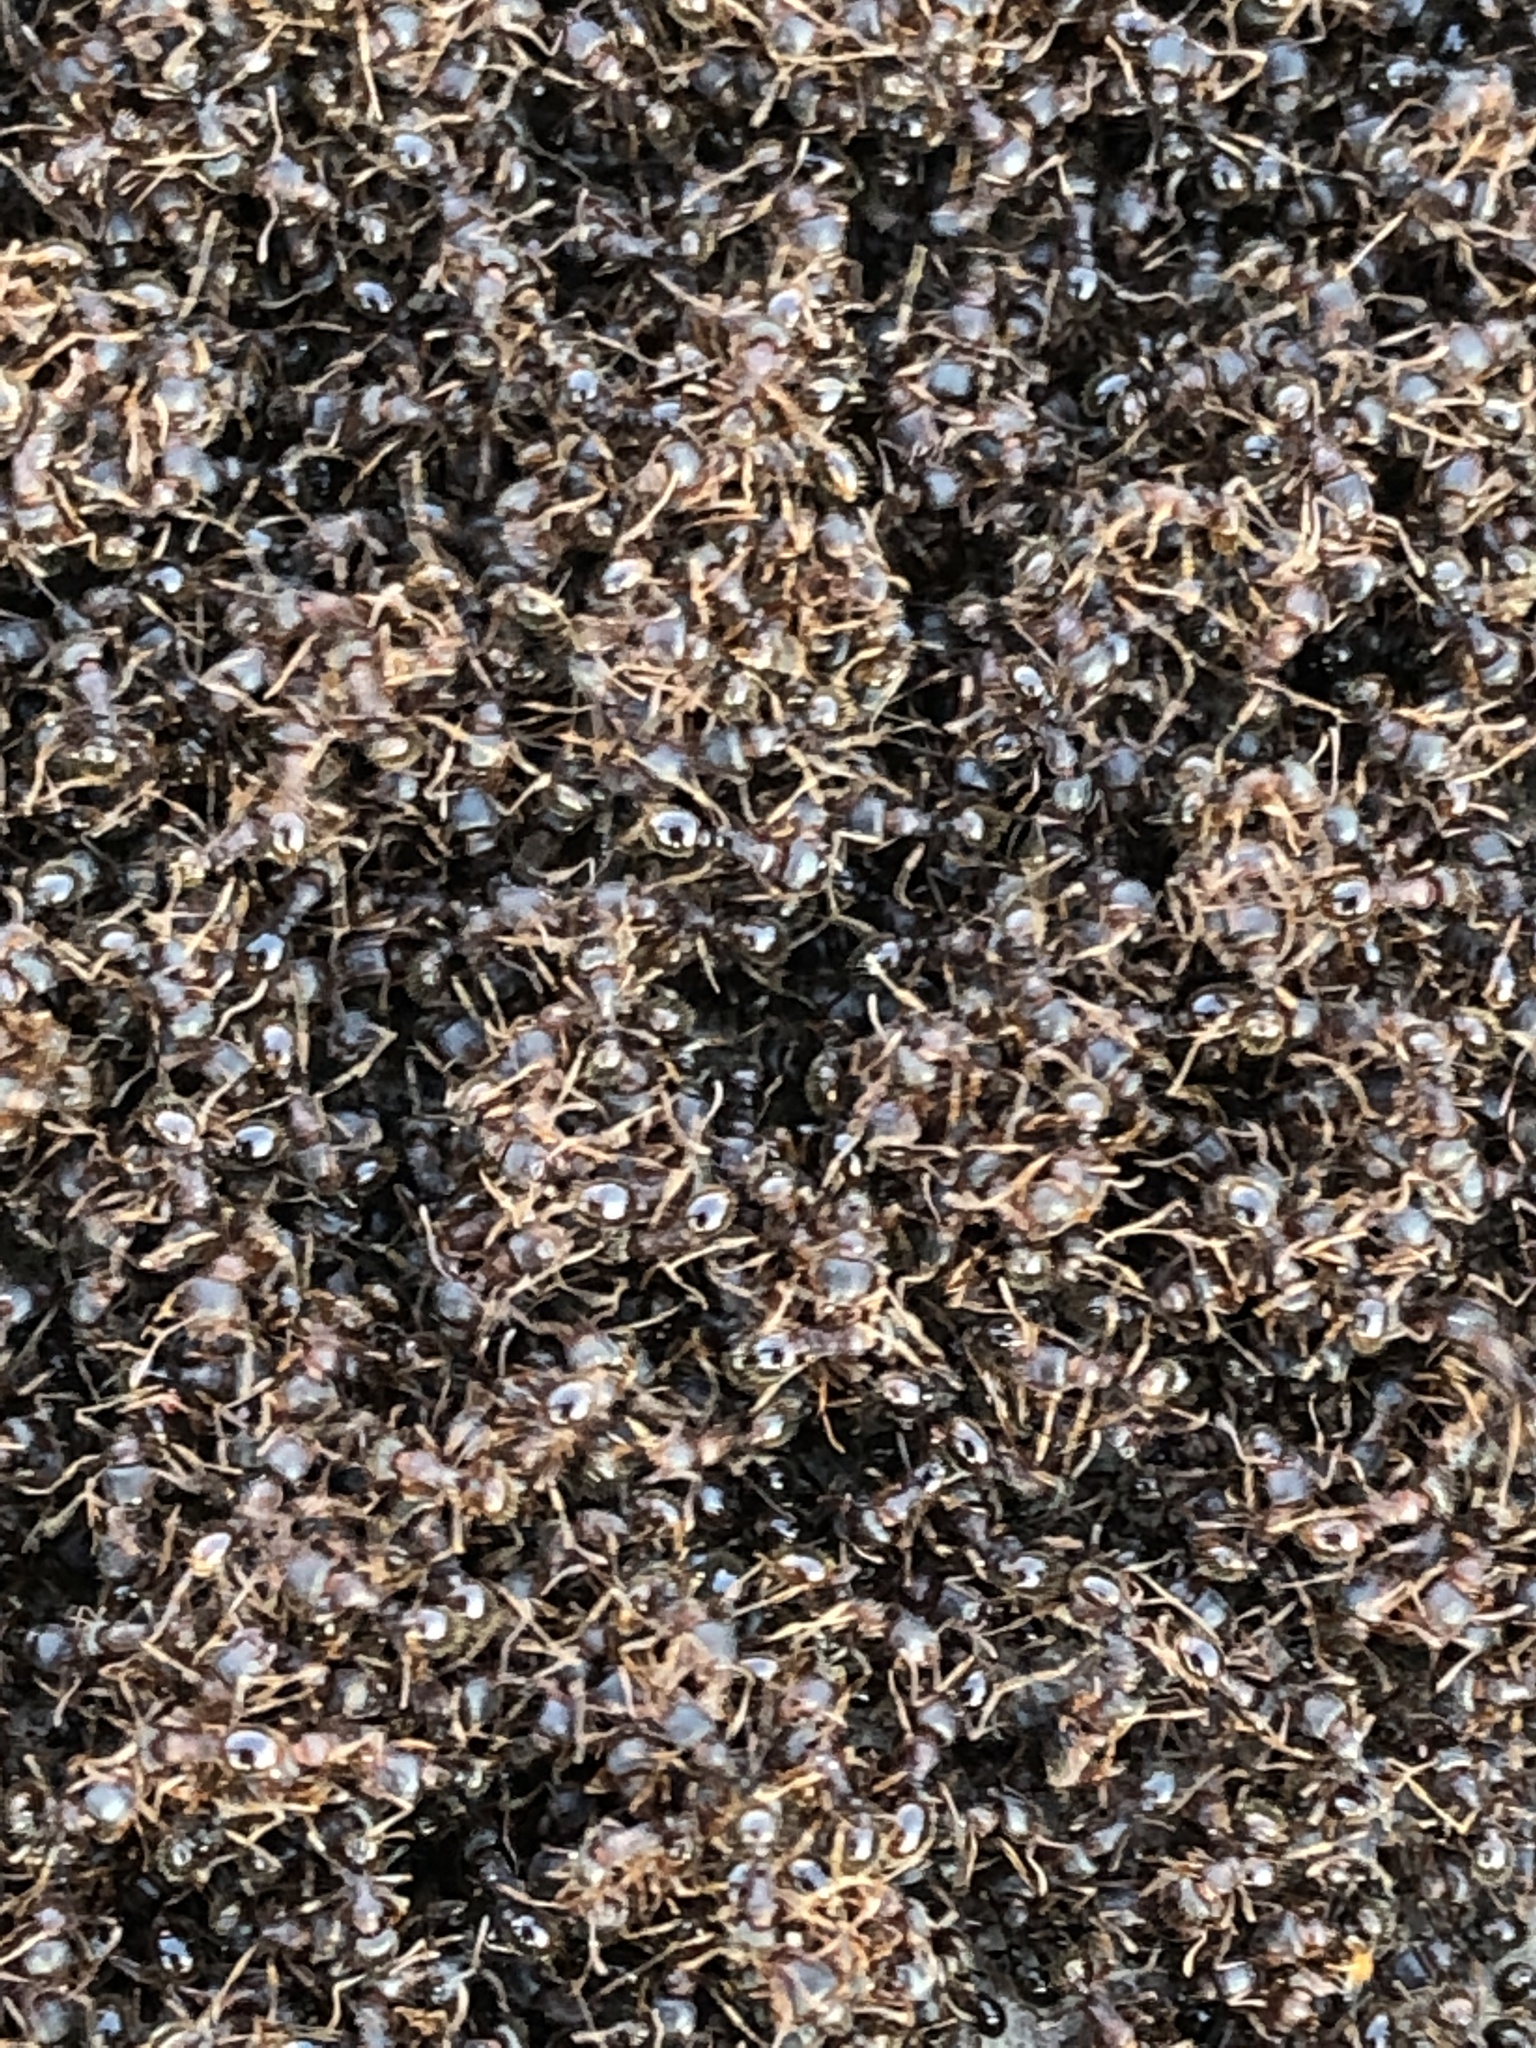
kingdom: Animalia
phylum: Arthropoda
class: Insecta
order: Hymenoptera
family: Formicidae
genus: Tetramorium
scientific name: Tetramorium immigrans
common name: Pavement ant
